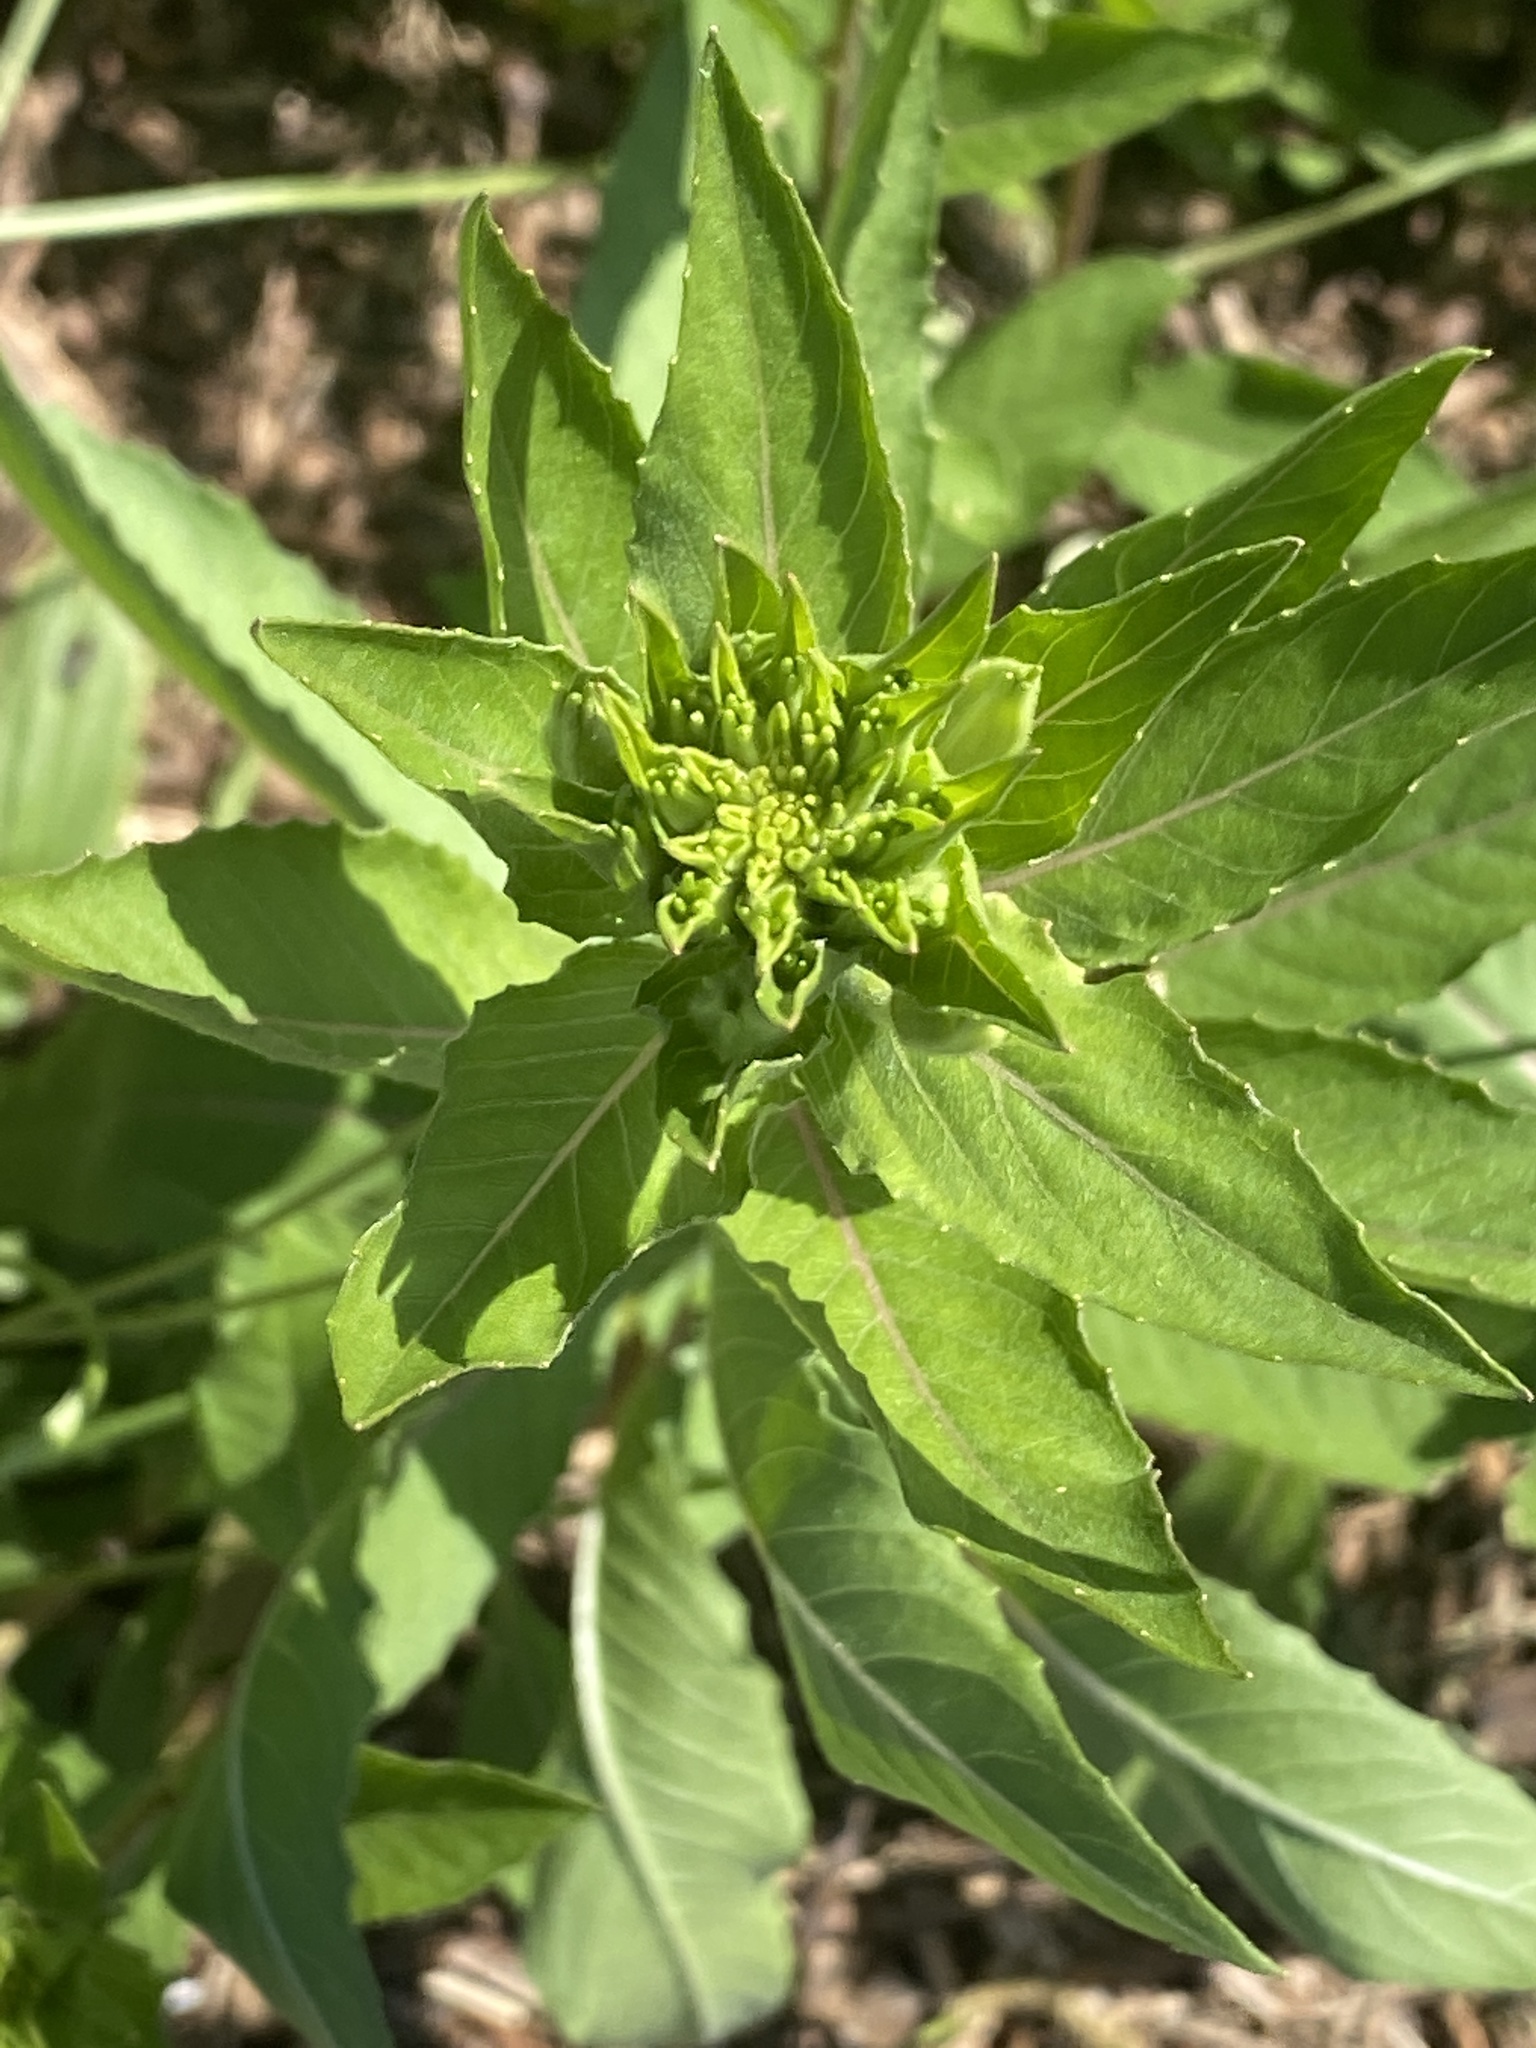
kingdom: Plantae
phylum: Tracheophyta
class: Magnoliopsida
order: Myrtales
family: Onagraceae
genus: Oenothera
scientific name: Oenothera biennis
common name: Common evening-primrose
